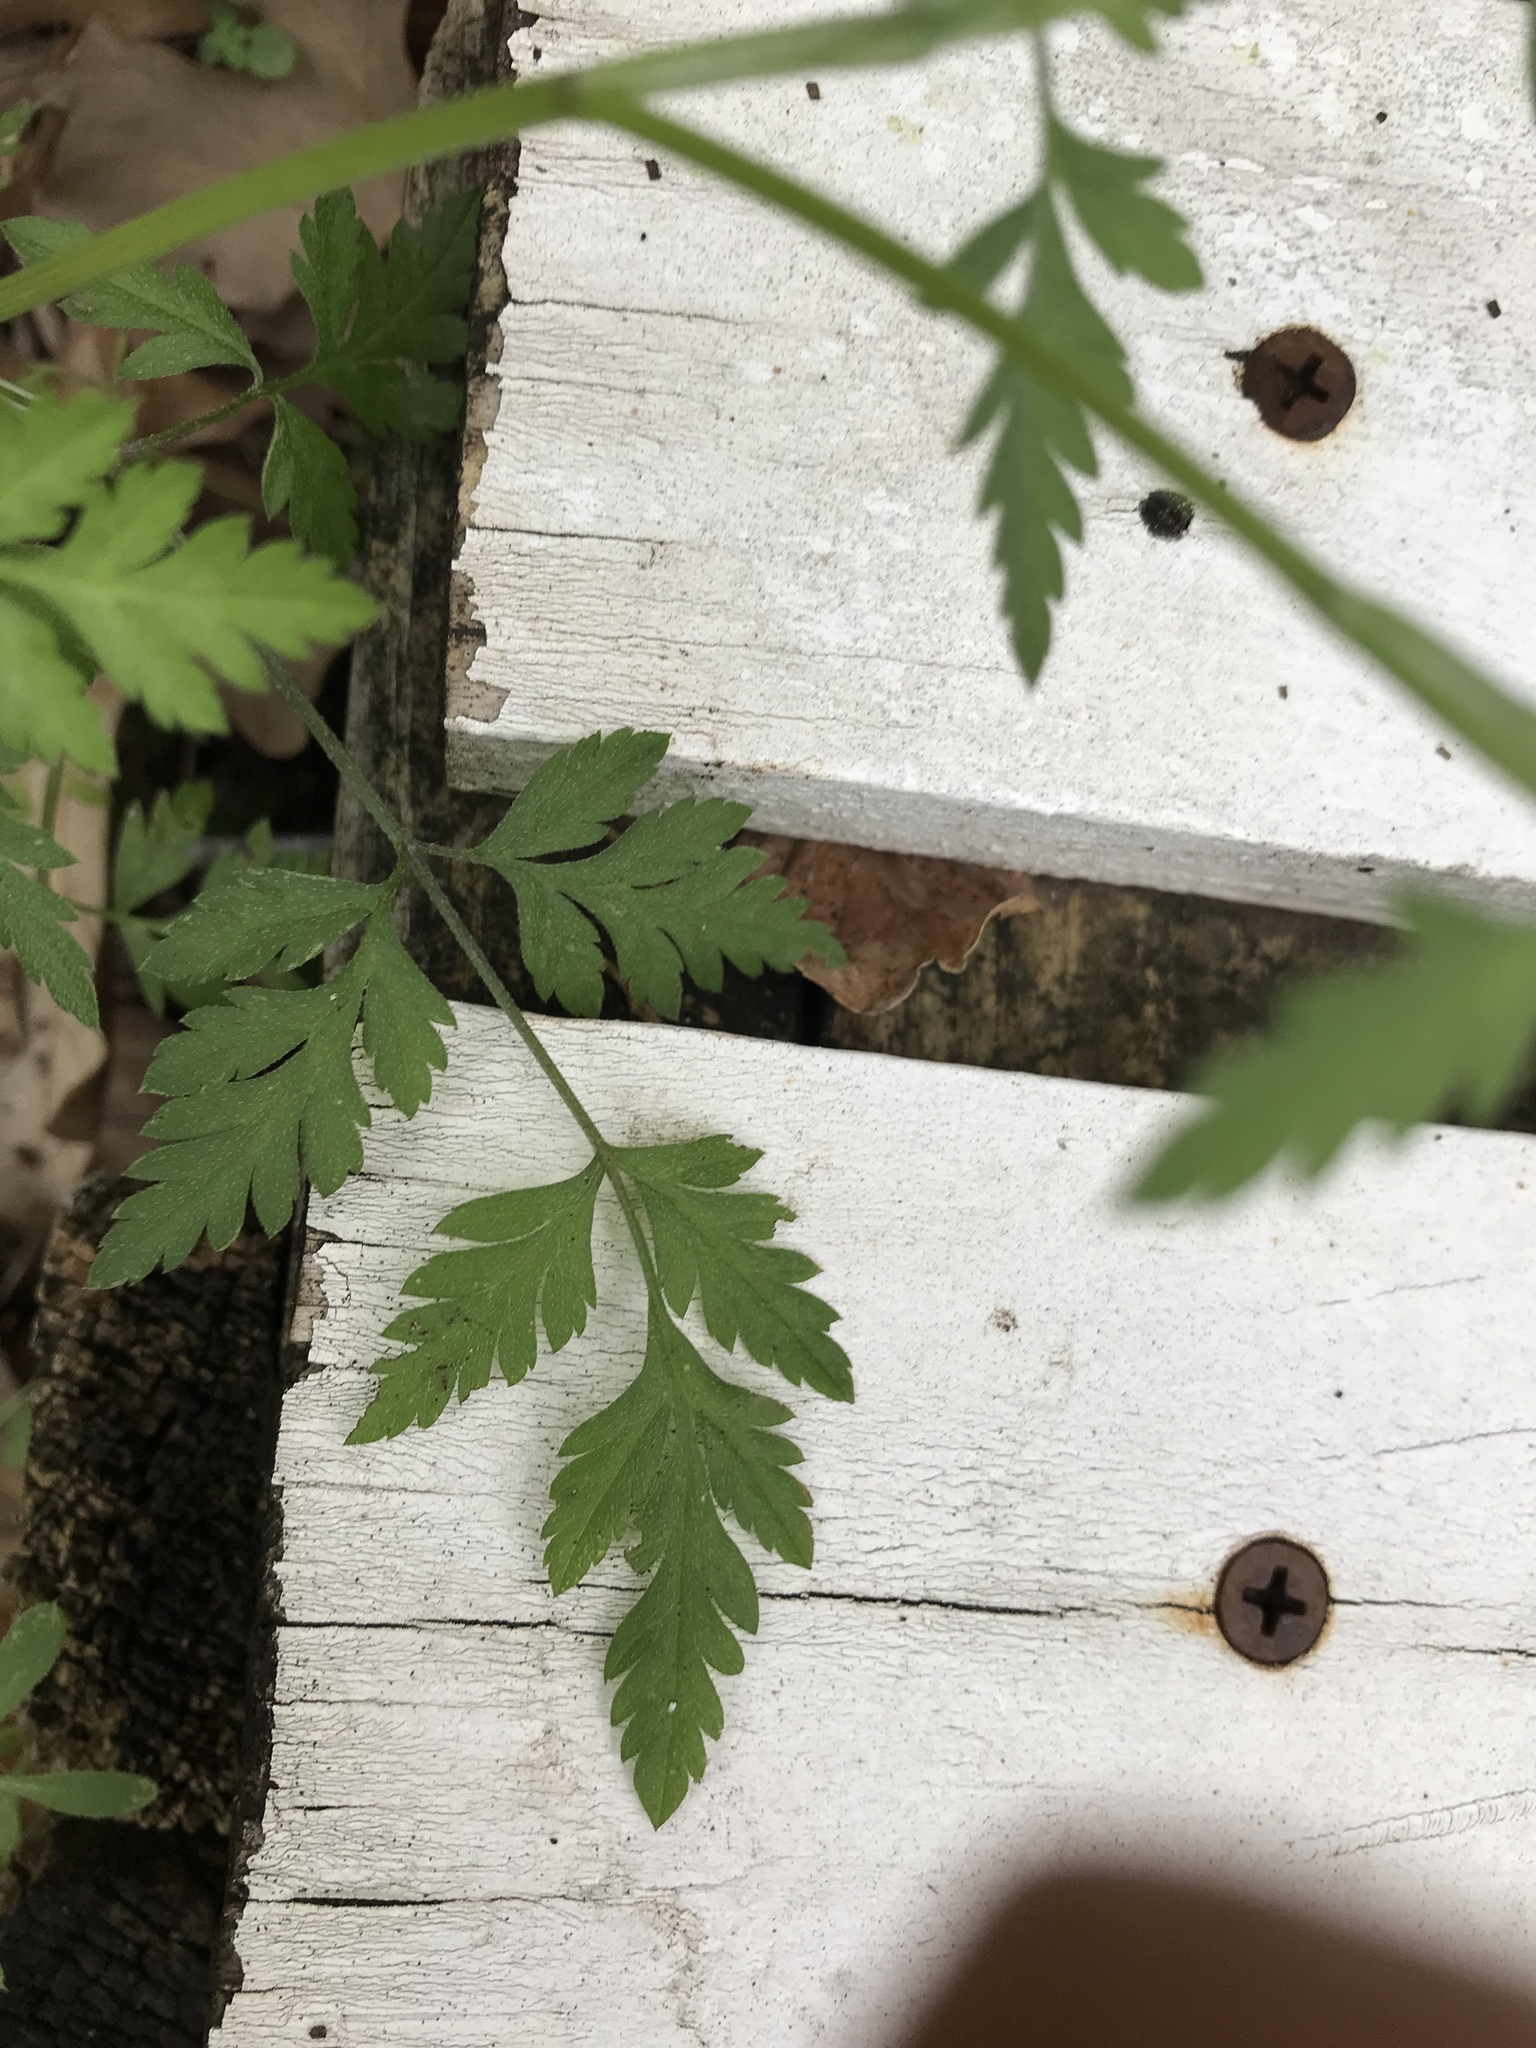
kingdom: Plantae
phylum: Tracheophyta
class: Magnoliopsida
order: Apiales
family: Apiaceae
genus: Torilis
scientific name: Torilis arvensis
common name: Spreading hedge-parsley
